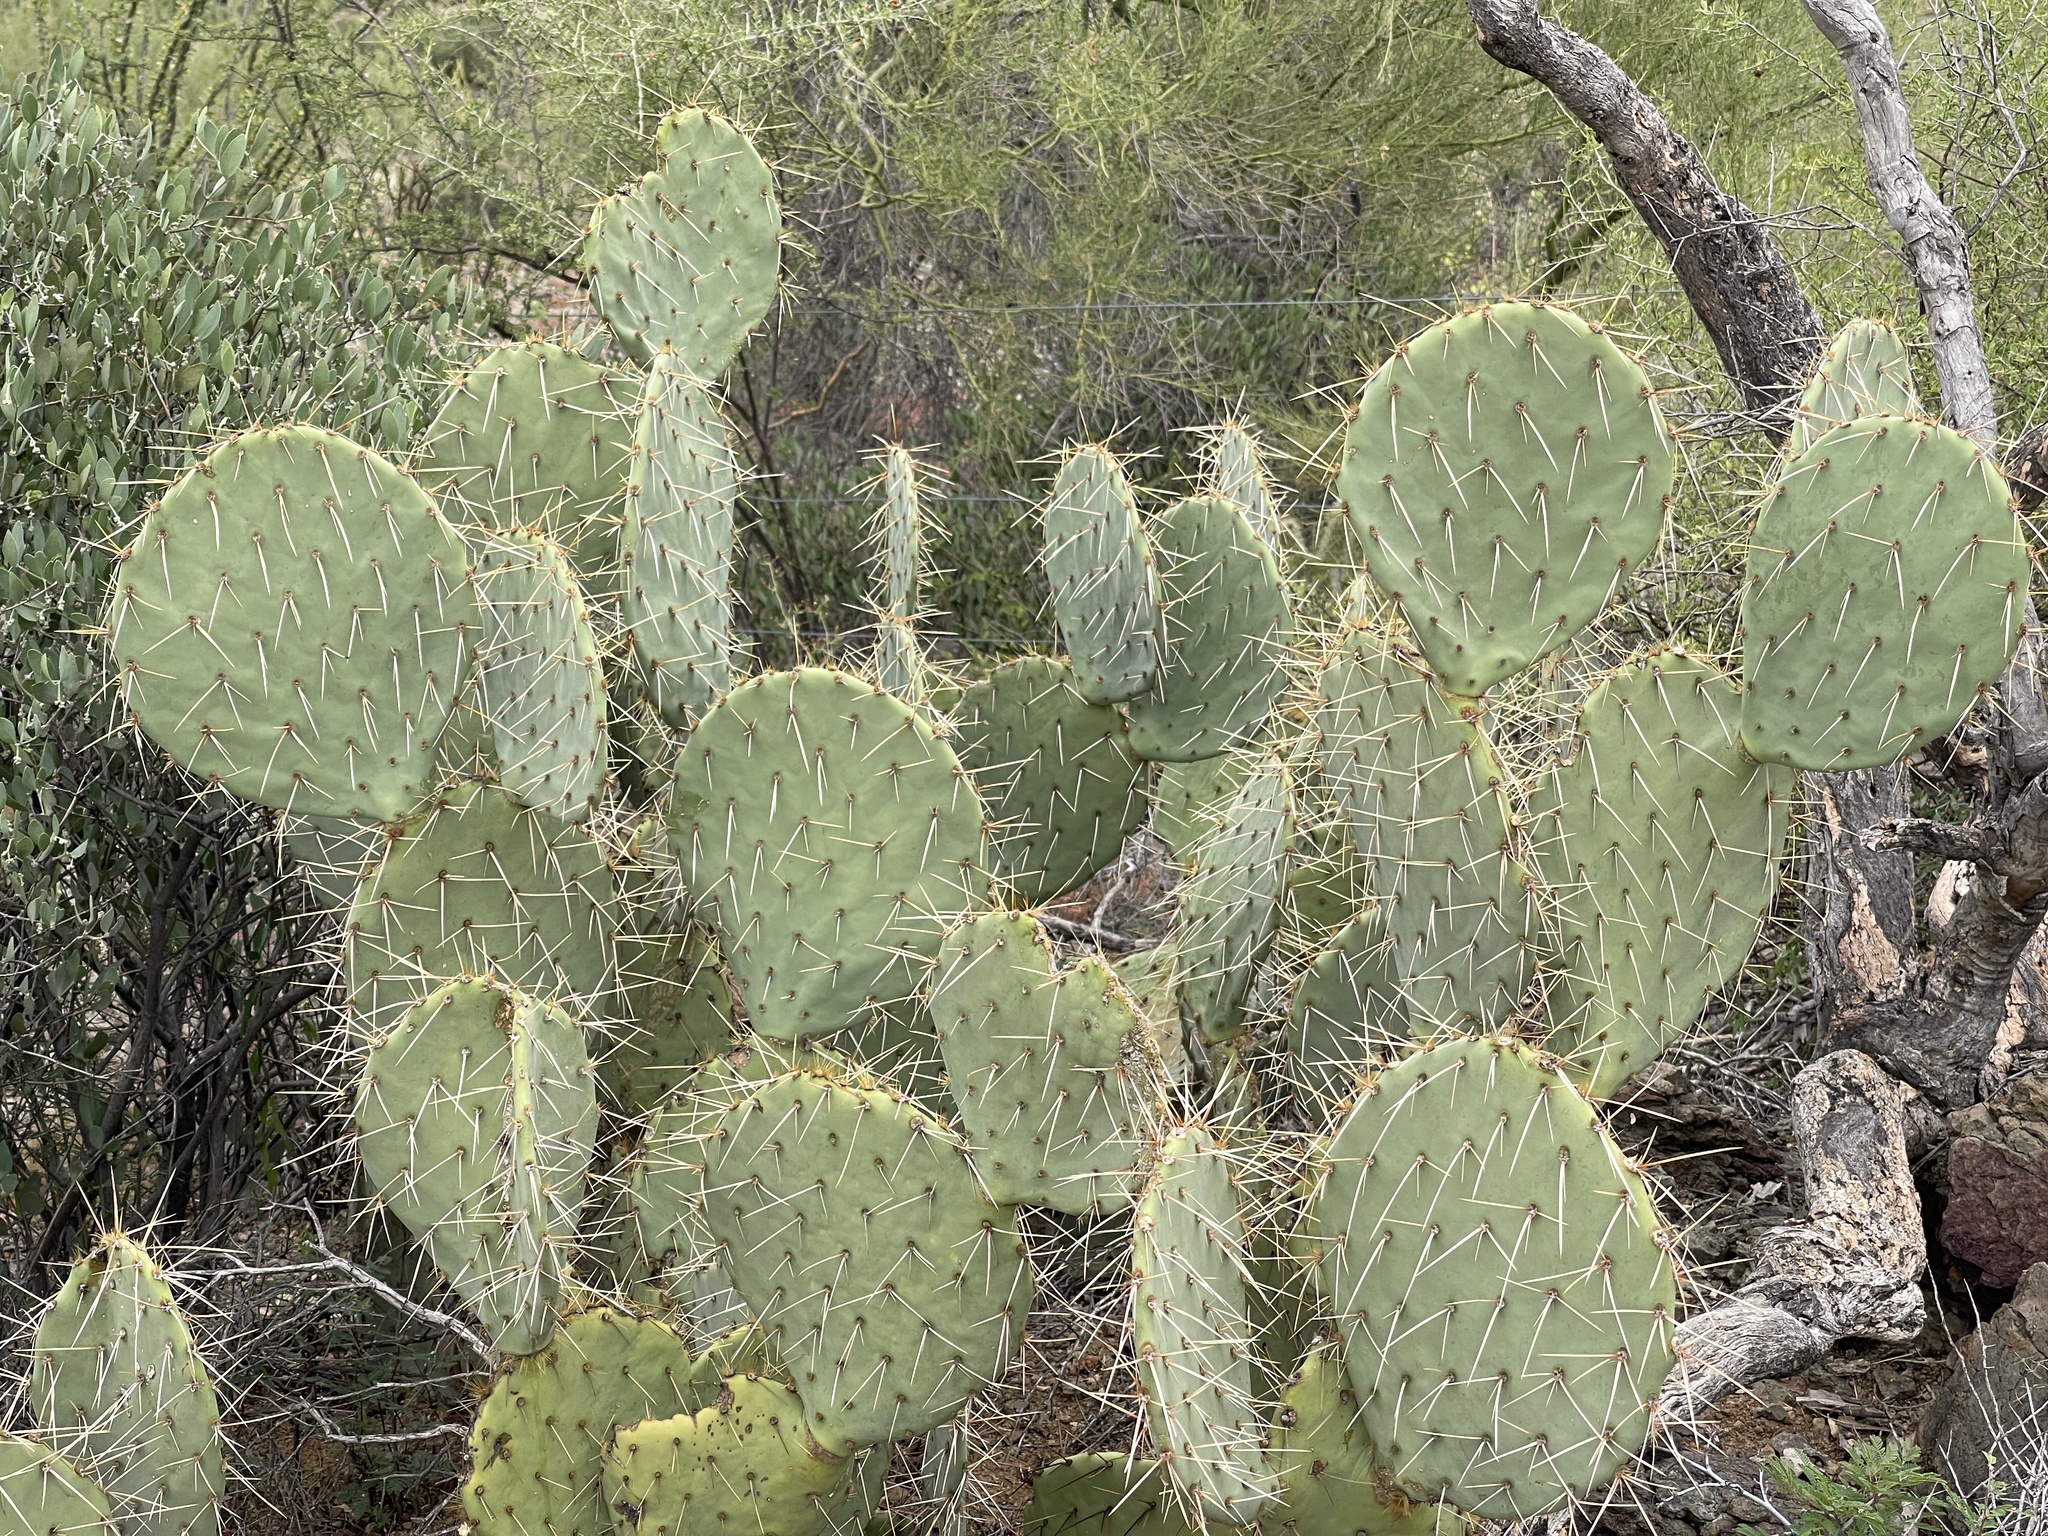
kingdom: Plantae
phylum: Tracheophyta
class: Magnoliopsida
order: Caryophyllales
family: Cactaceae
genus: Opuntia
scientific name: Opuntia engelmannii
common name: Cactus-apple
